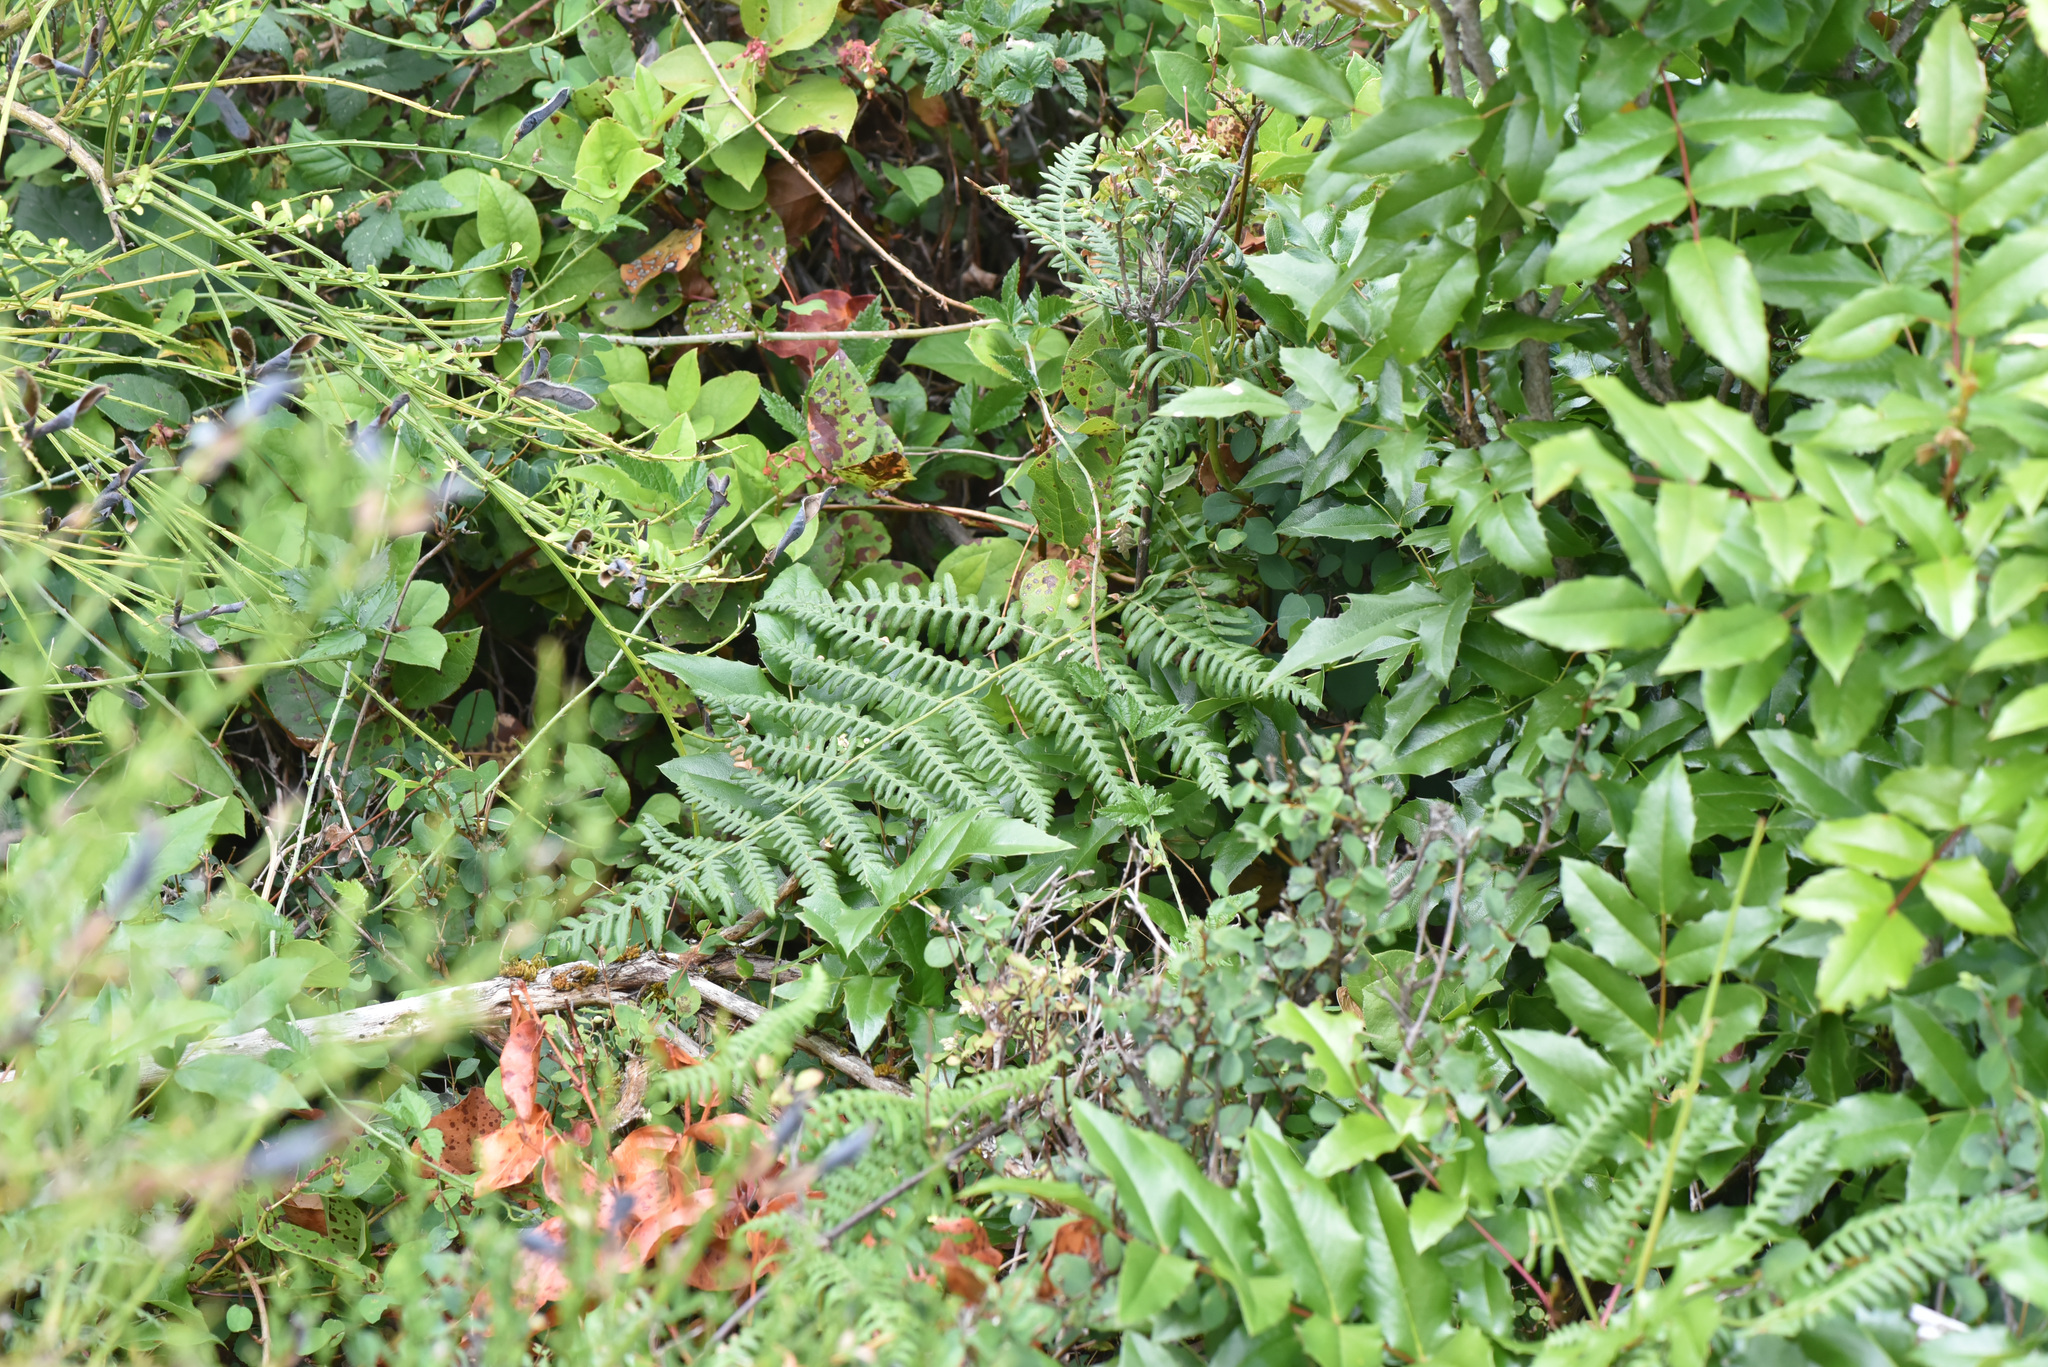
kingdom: Plantae
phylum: Tracheophyta
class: Polypodiopsida
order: Polypodiales
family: Dennstaedtiaceae
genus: Pteridium
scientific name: Pteridium aquilinum
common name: Bracken
